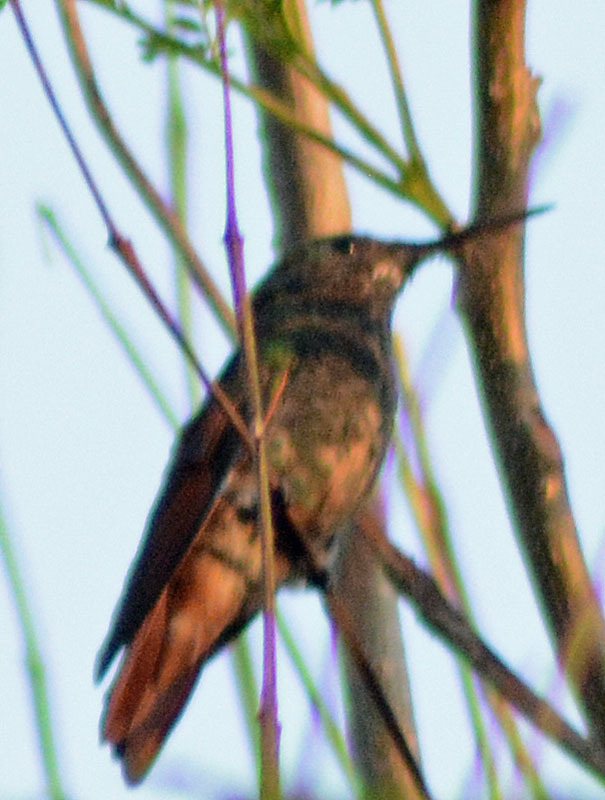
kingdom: Animalia
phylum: Chordata
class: Aves
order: Apodiformes
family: Trochilidae
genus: Saucerottia
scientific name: Saucerottia beryllina
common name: Berylline hummingbird
